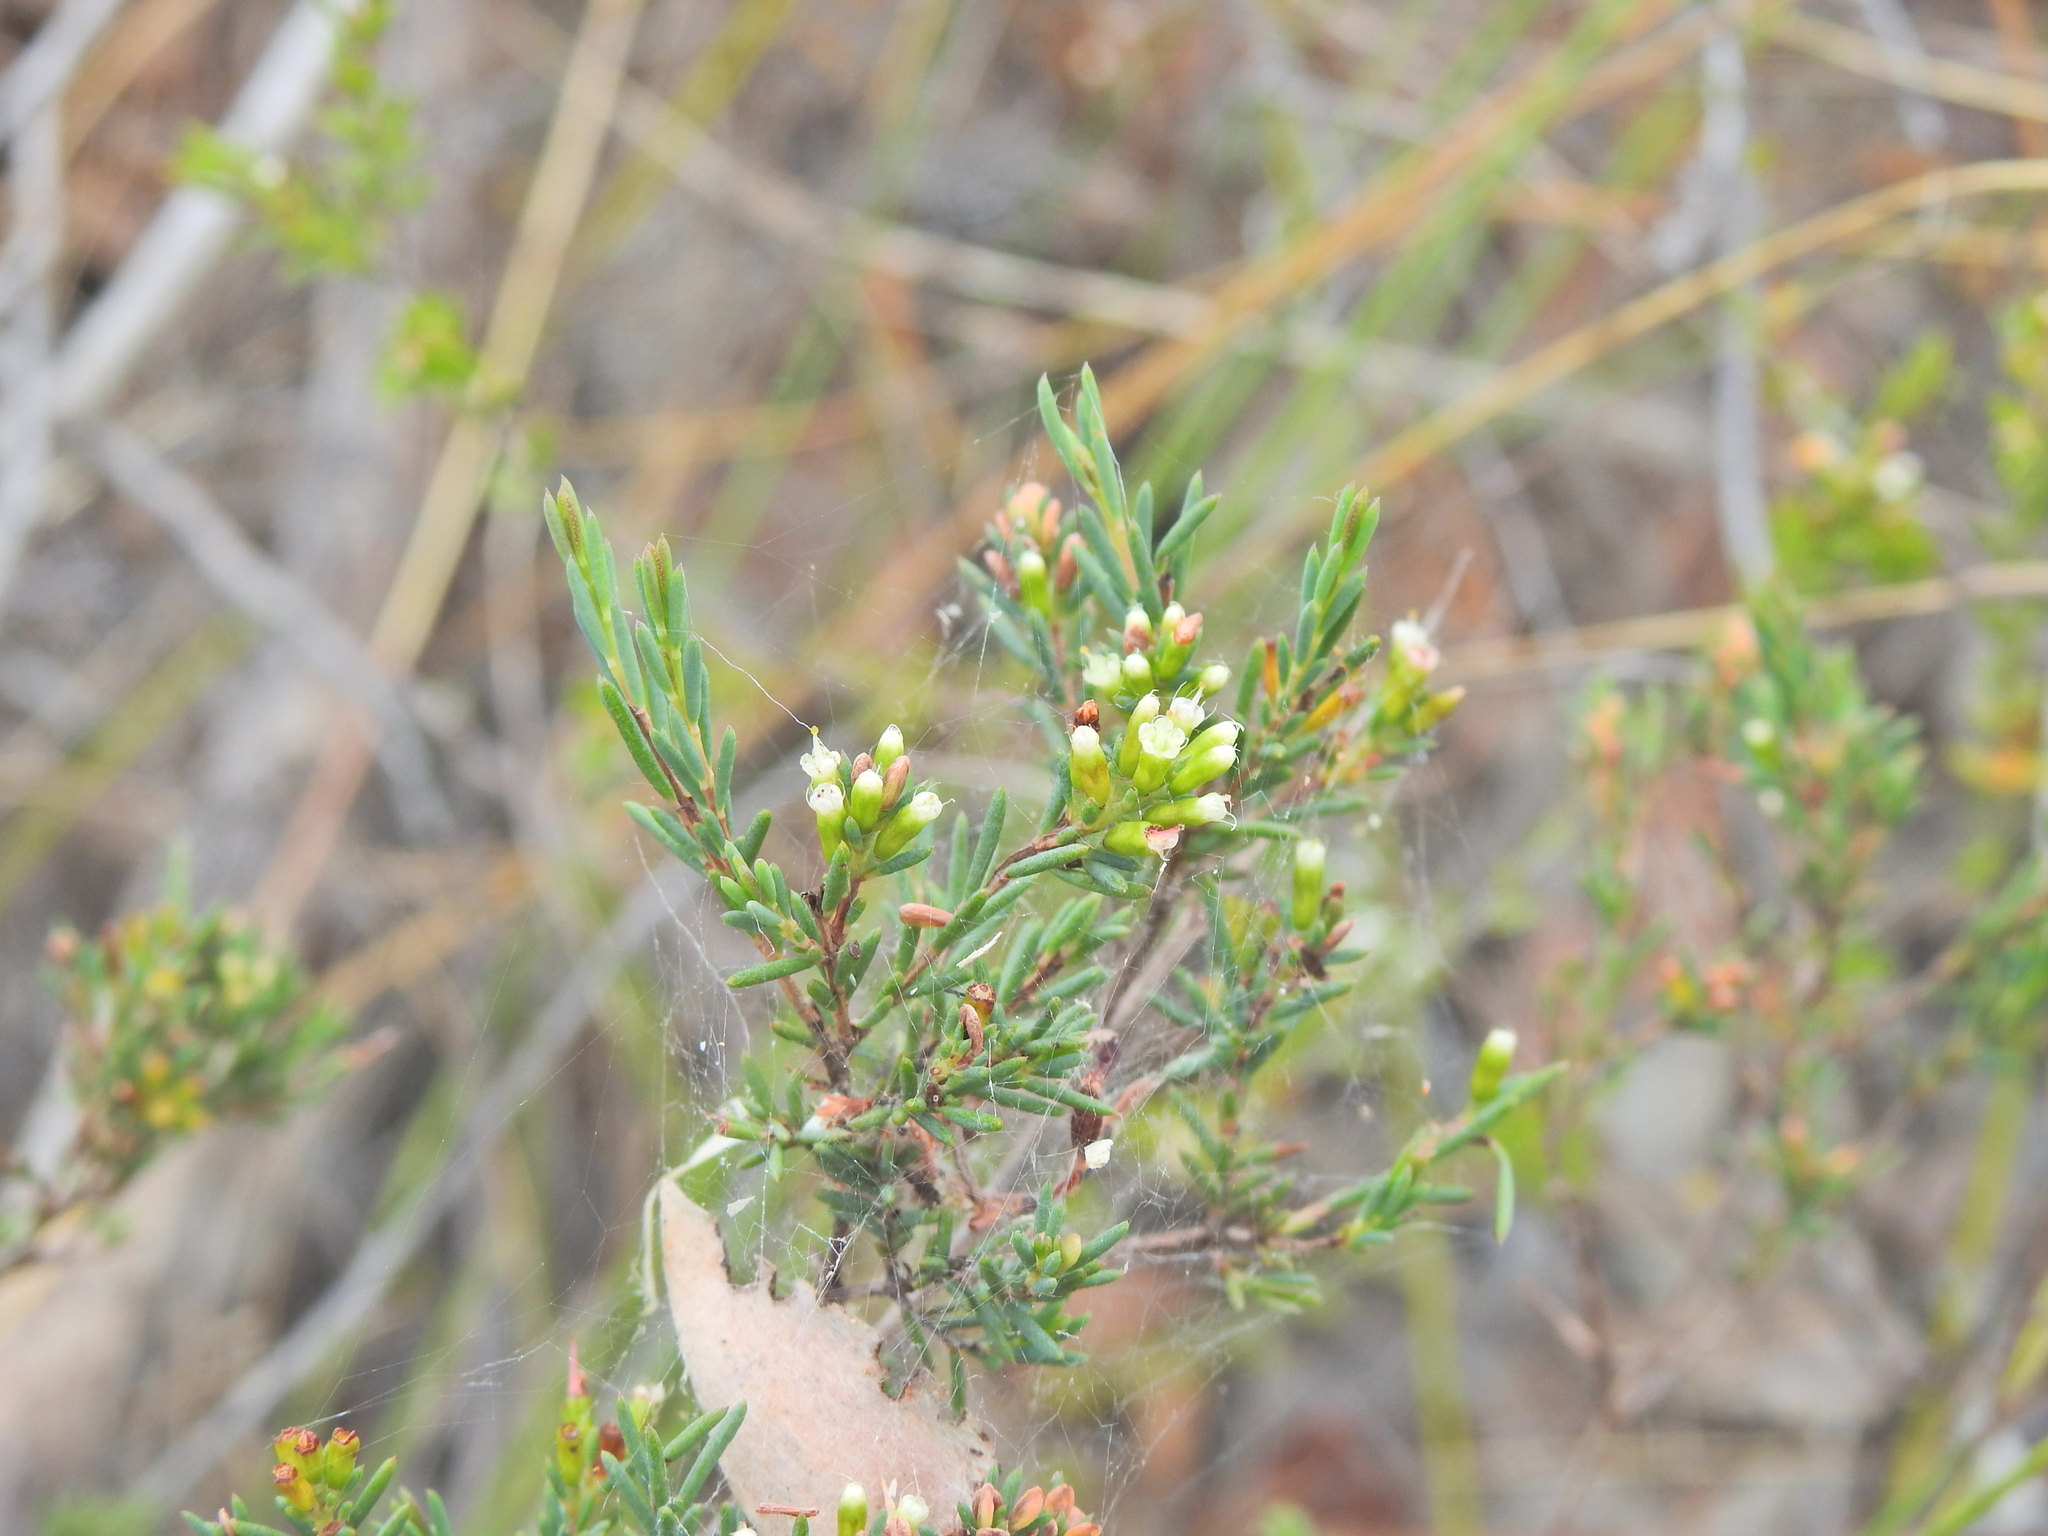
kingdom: Plantae
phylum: Tracheophyta
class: Magnoliopsida
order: Myrtales
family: Myrtaceae
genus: Homoranthus
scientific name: Homoranthus virgatus
